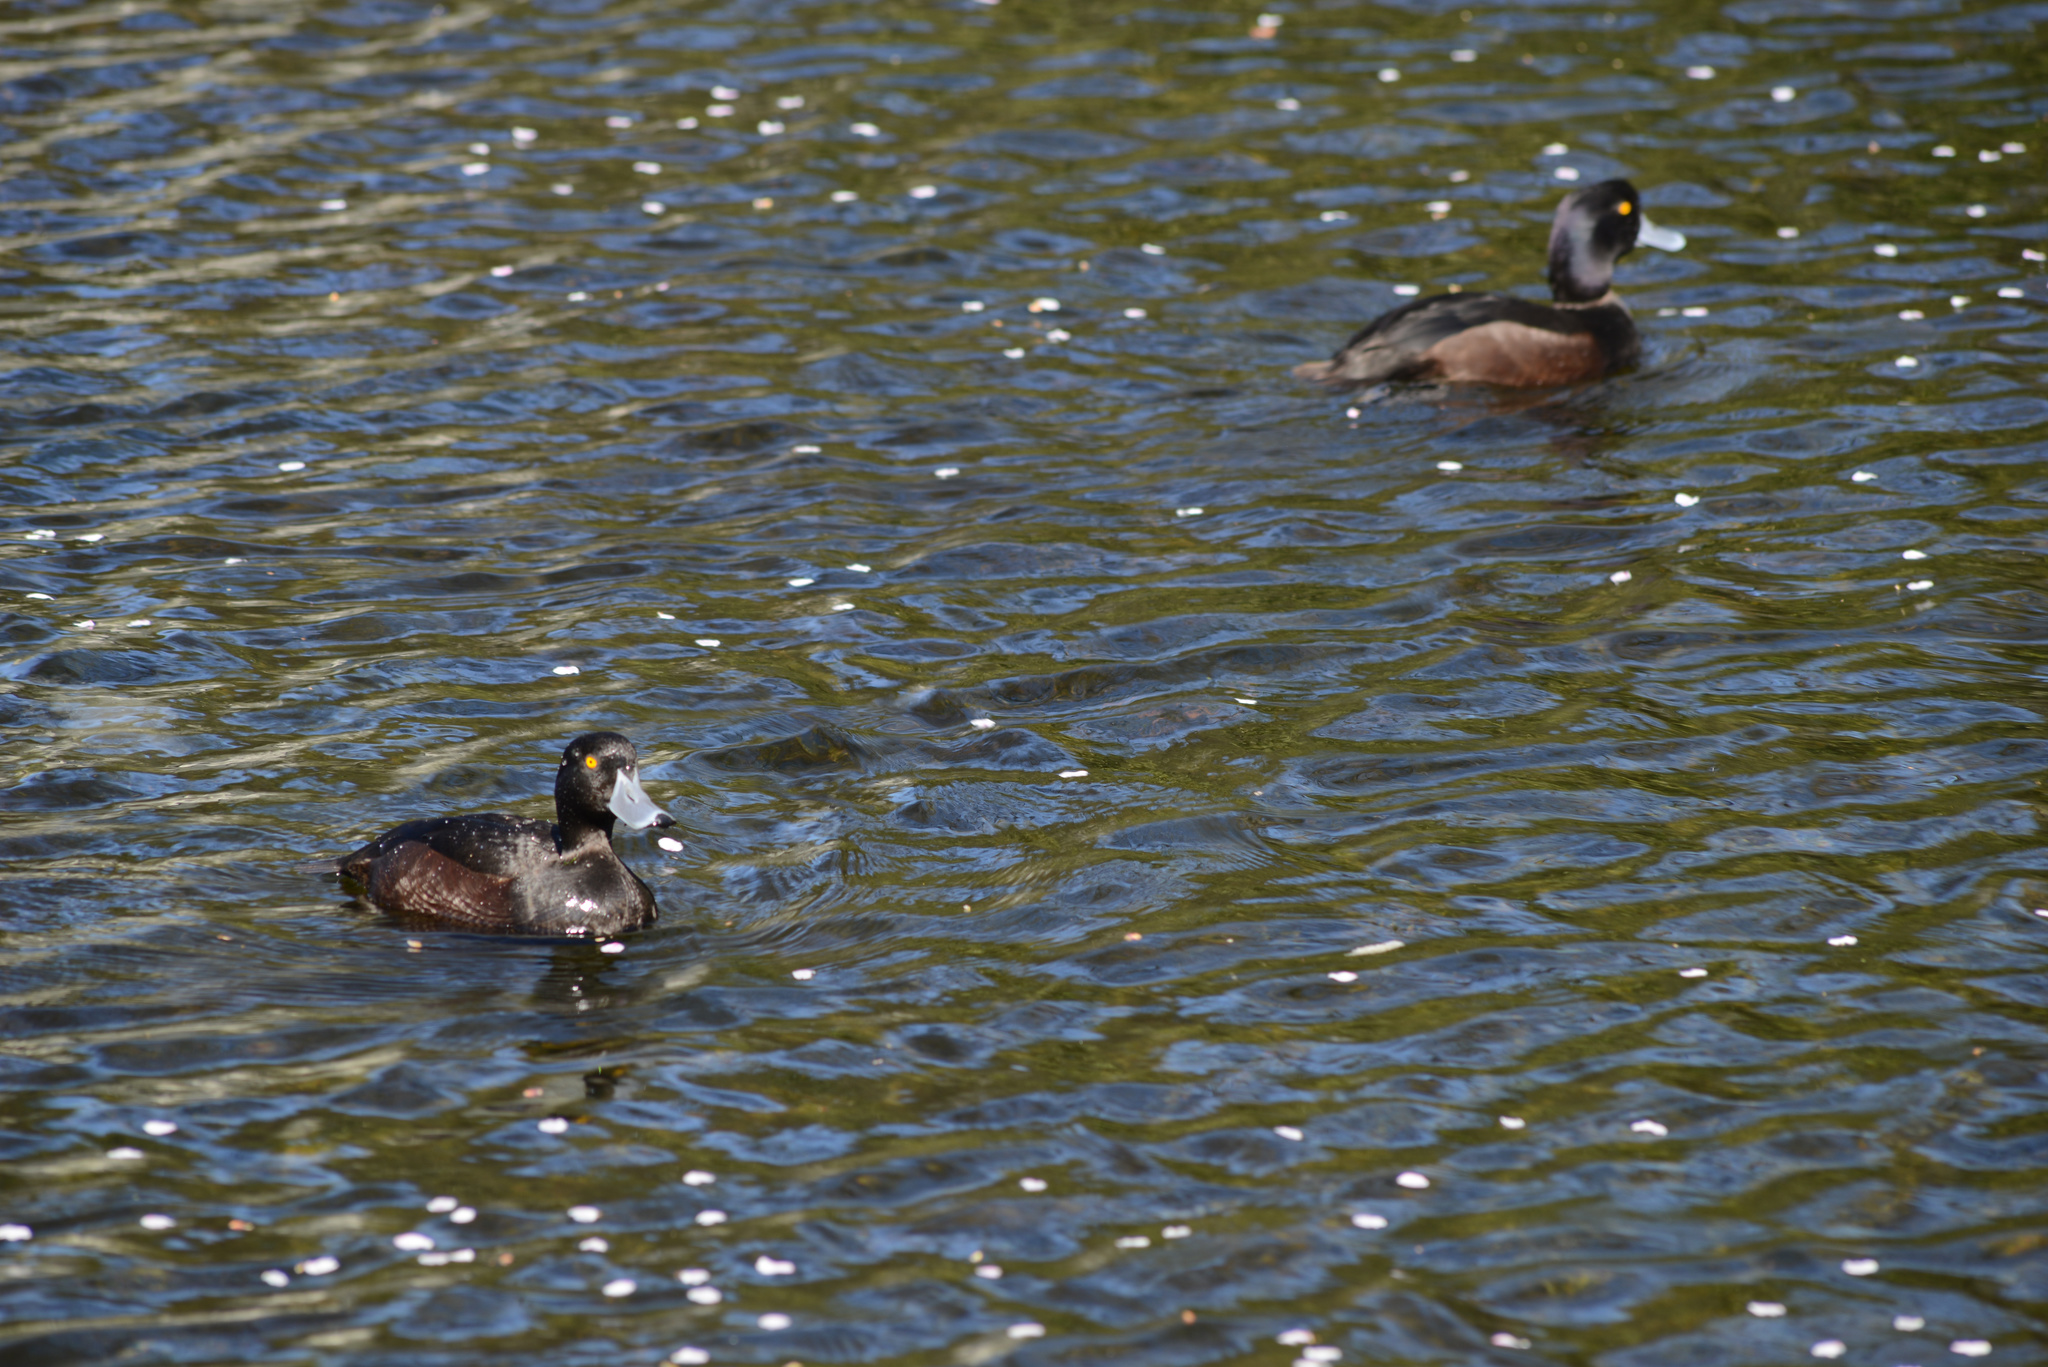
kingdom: Animalia
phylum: Chordata
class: Aves
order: Anseriformes
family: Anatidae
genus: Aythya
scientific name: Aythya novaeseelandiae
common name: New zealand scaup
